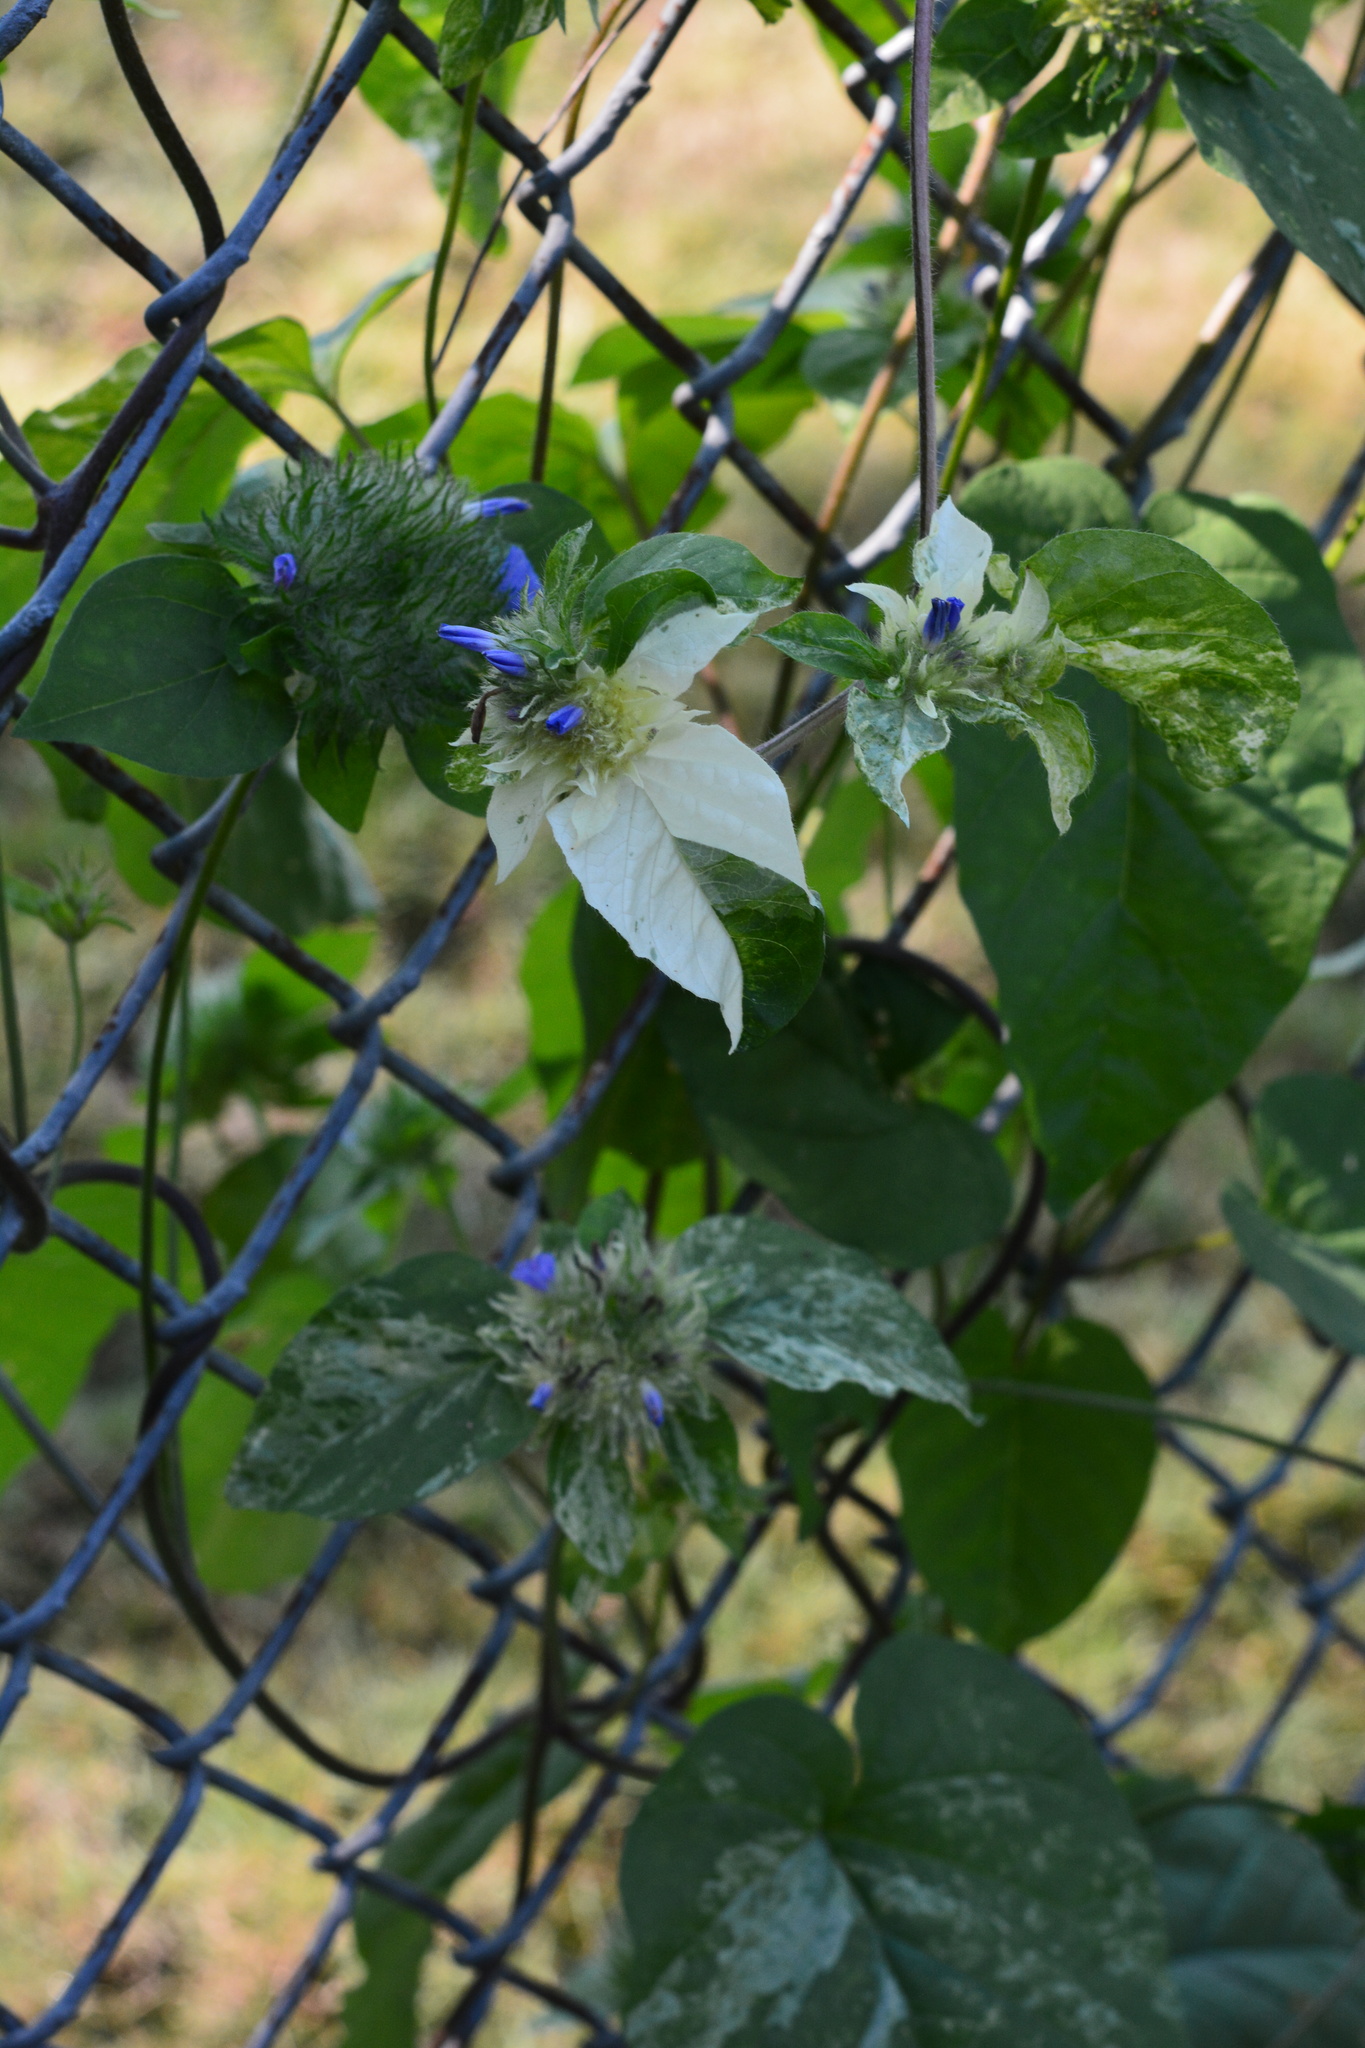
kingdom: Plantae
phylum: Tracheophyta
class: Magnoliopsida
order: Solanales
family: Convolvulaceae
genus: Jacquemontia
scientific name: Jacquemontia tamnifolia
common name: Hairy clustervine
